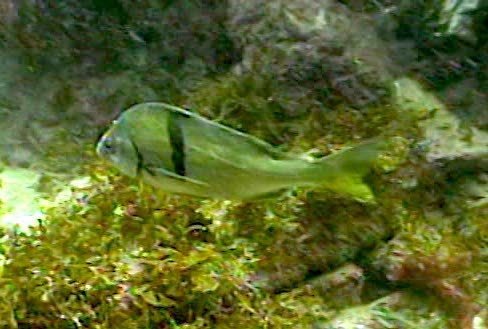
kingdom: Animalia
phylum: Chordata
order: Perciformes
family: Haemulidae
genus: Anisotremus
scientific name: Anisotremus davidsonii
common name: Grunt
